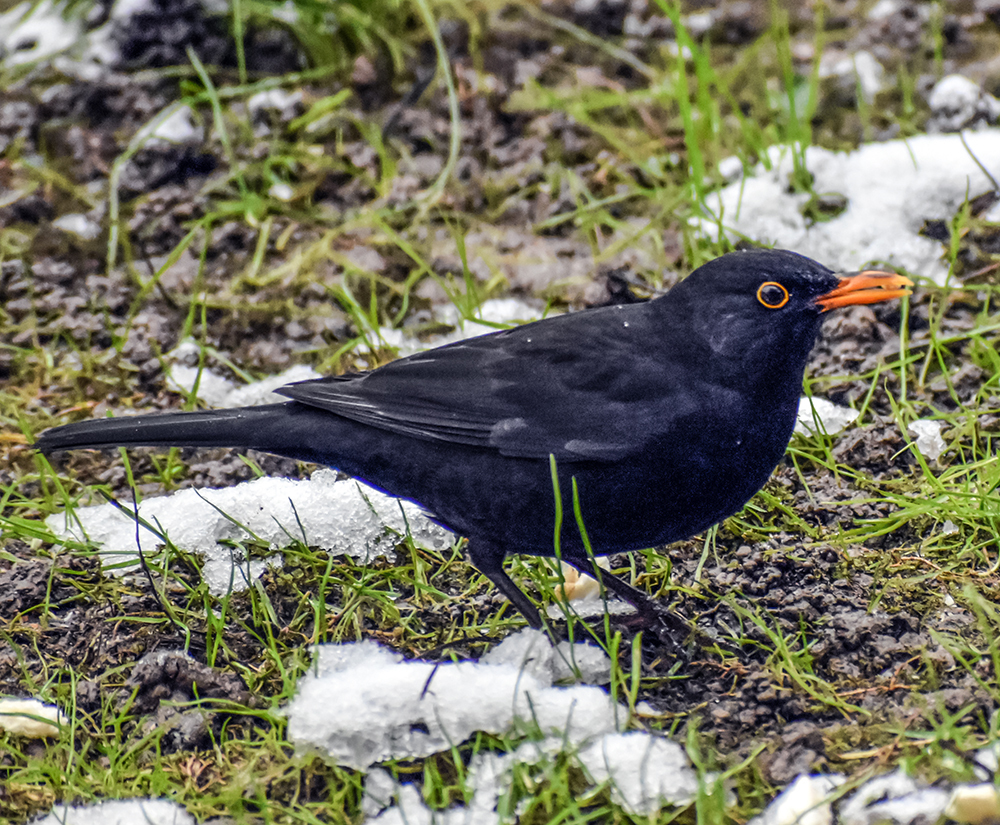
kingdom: Animalia
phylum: Chordata
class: Aves
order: Passeriformes
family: Turdidae
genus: Turdus
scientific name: Turdus merula
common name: Common blackbird
